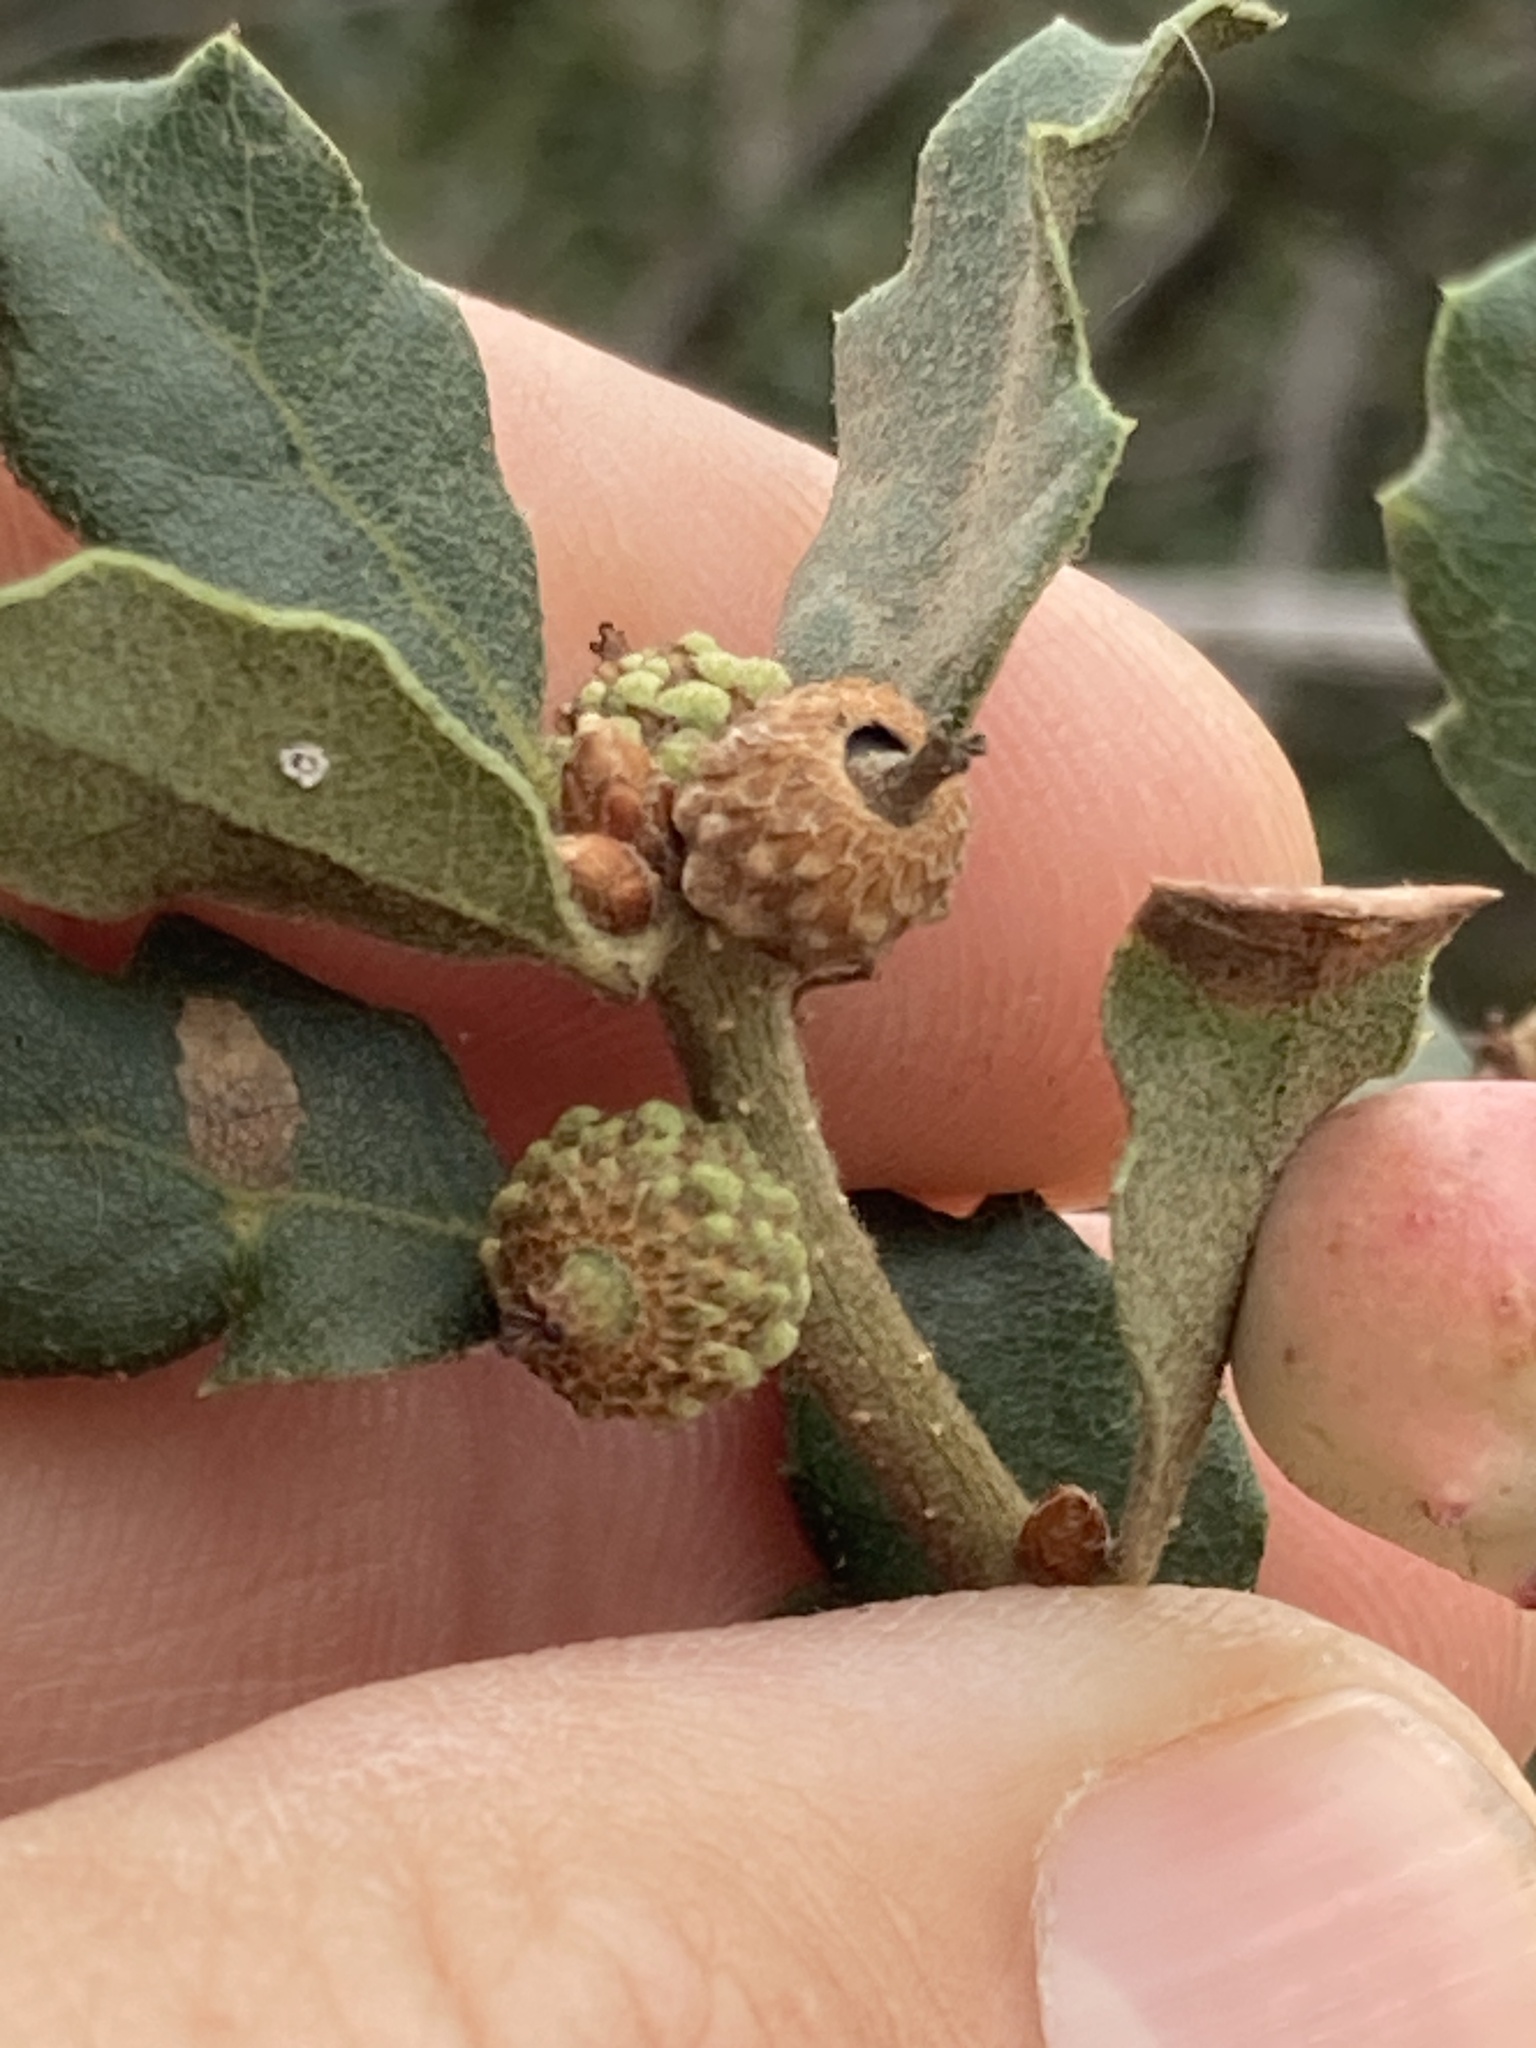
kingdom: Plantae
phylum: Tracheophyta
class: Magnoliopsida
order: Fagales
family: Fagaceae
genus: Quercus
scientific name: Quercus berberidifolia
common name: California scrub oak
